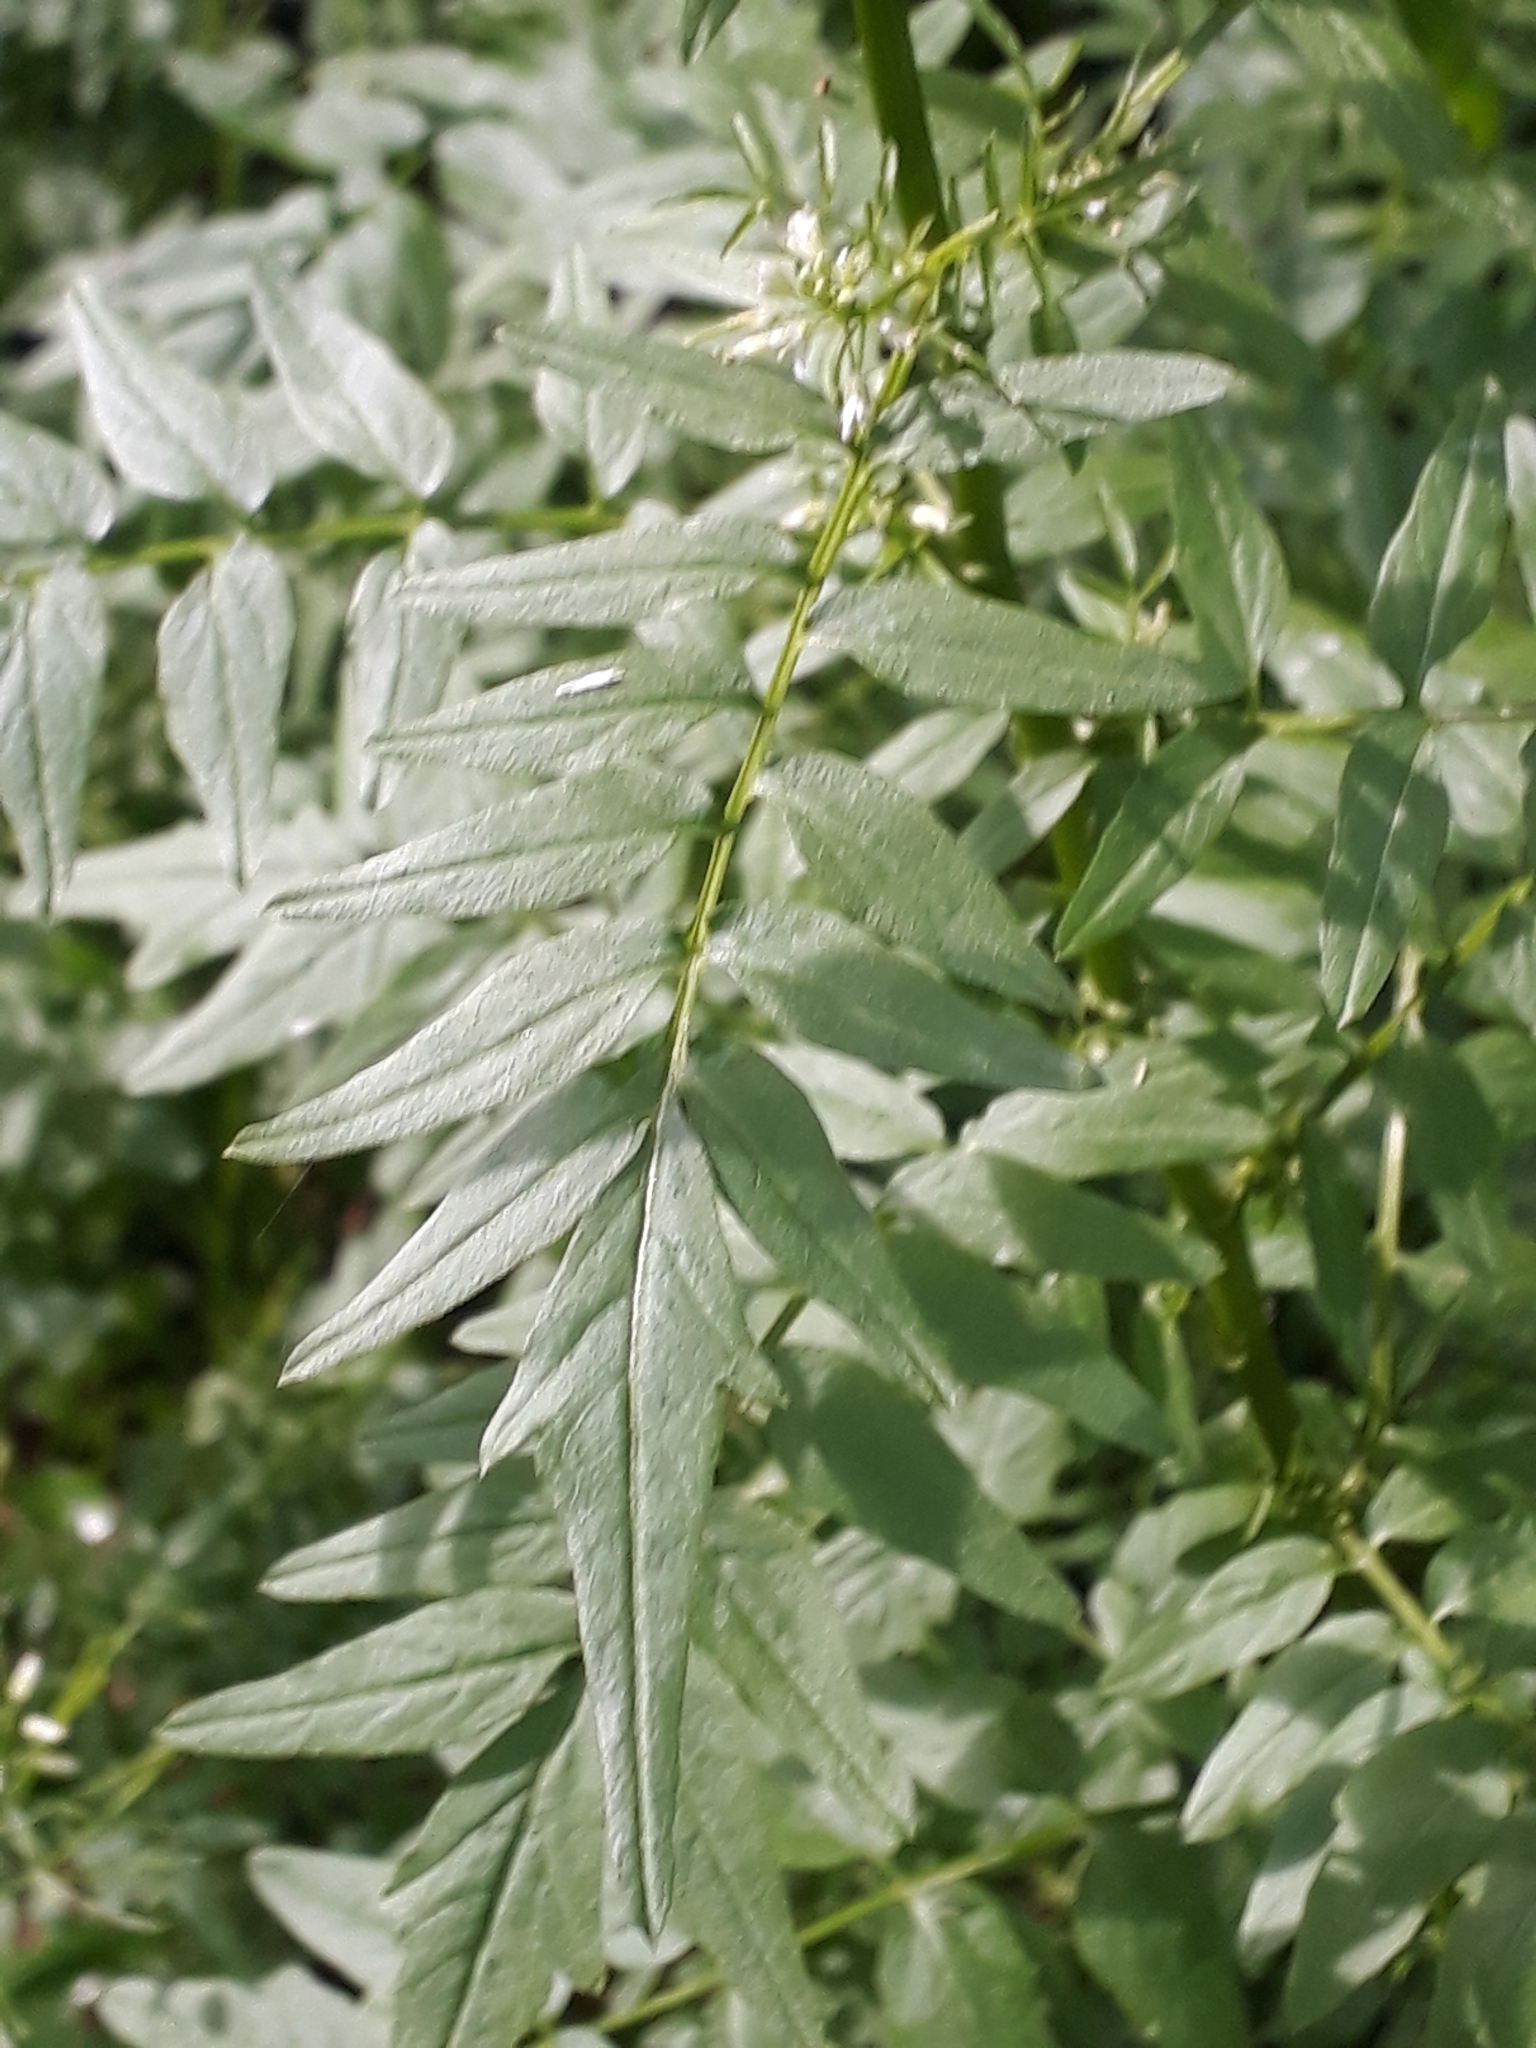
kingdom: Plantae
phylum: Tracheophyta
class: Magnoliopsida
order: Brassicales
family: Brassicaceae
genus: Cardamine
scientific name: Cardamine impatiens
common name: Narrow-leaved bitter-cress
